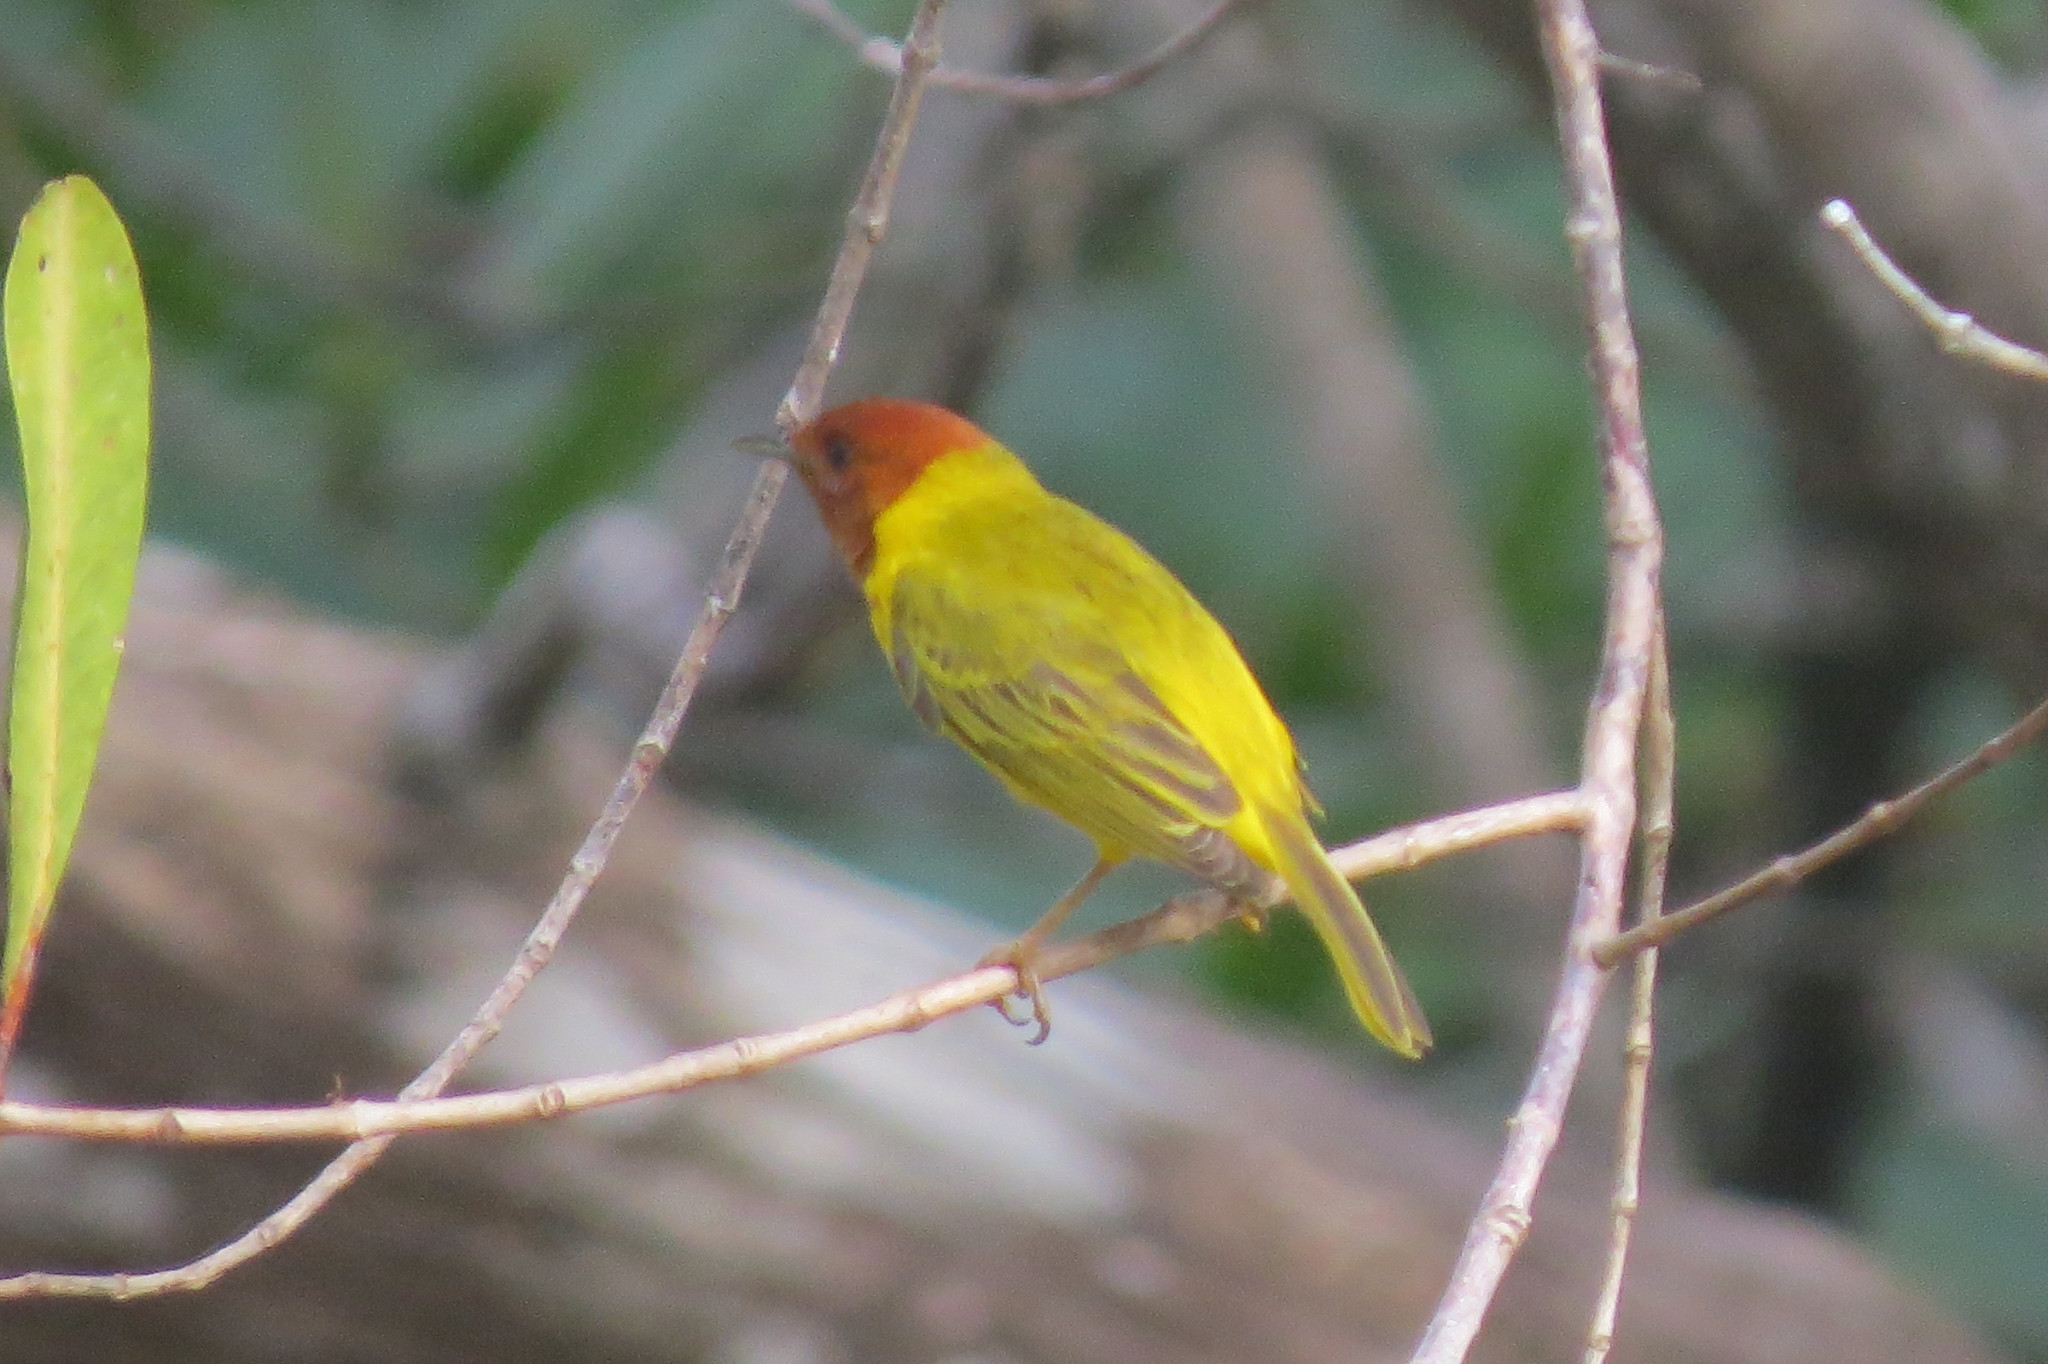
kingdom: Animalia
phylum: Chordata
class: Aves
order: Passeriformes
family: Parulidae
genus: Setophaga
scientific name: Setophaga petechia
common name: Yellow warbler
